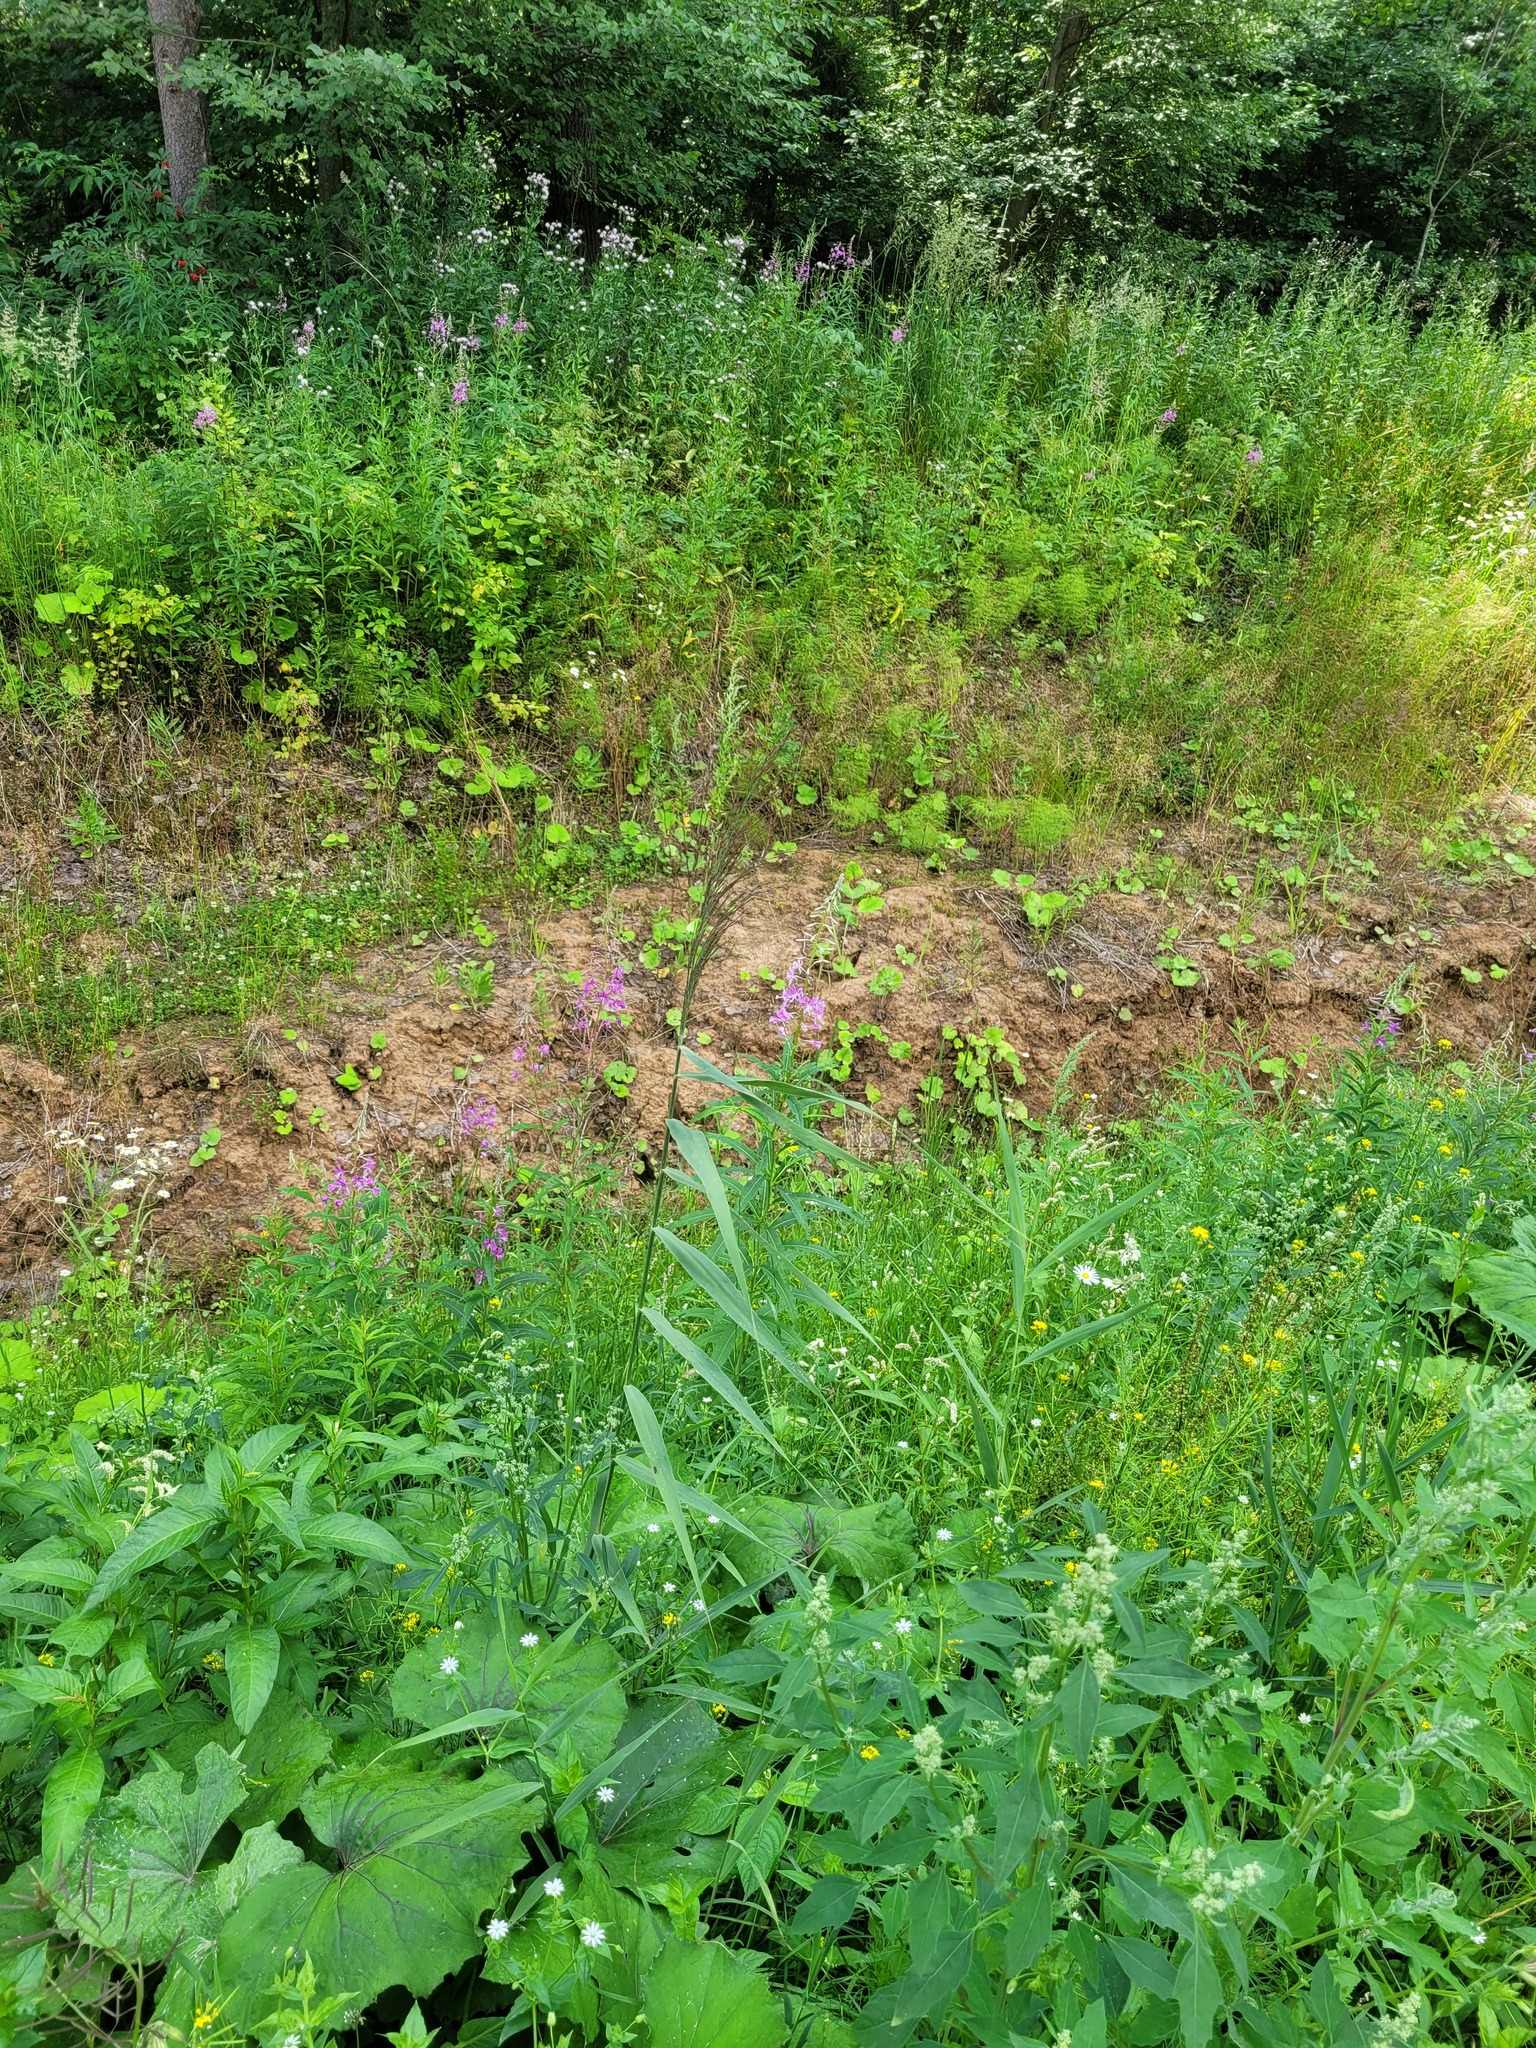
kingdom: Plantae
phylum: Tracheophyta
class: Liliopsida
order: Poales
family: Poaceae
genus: Phragmites
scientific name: Phragmites australis
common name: Common reed
